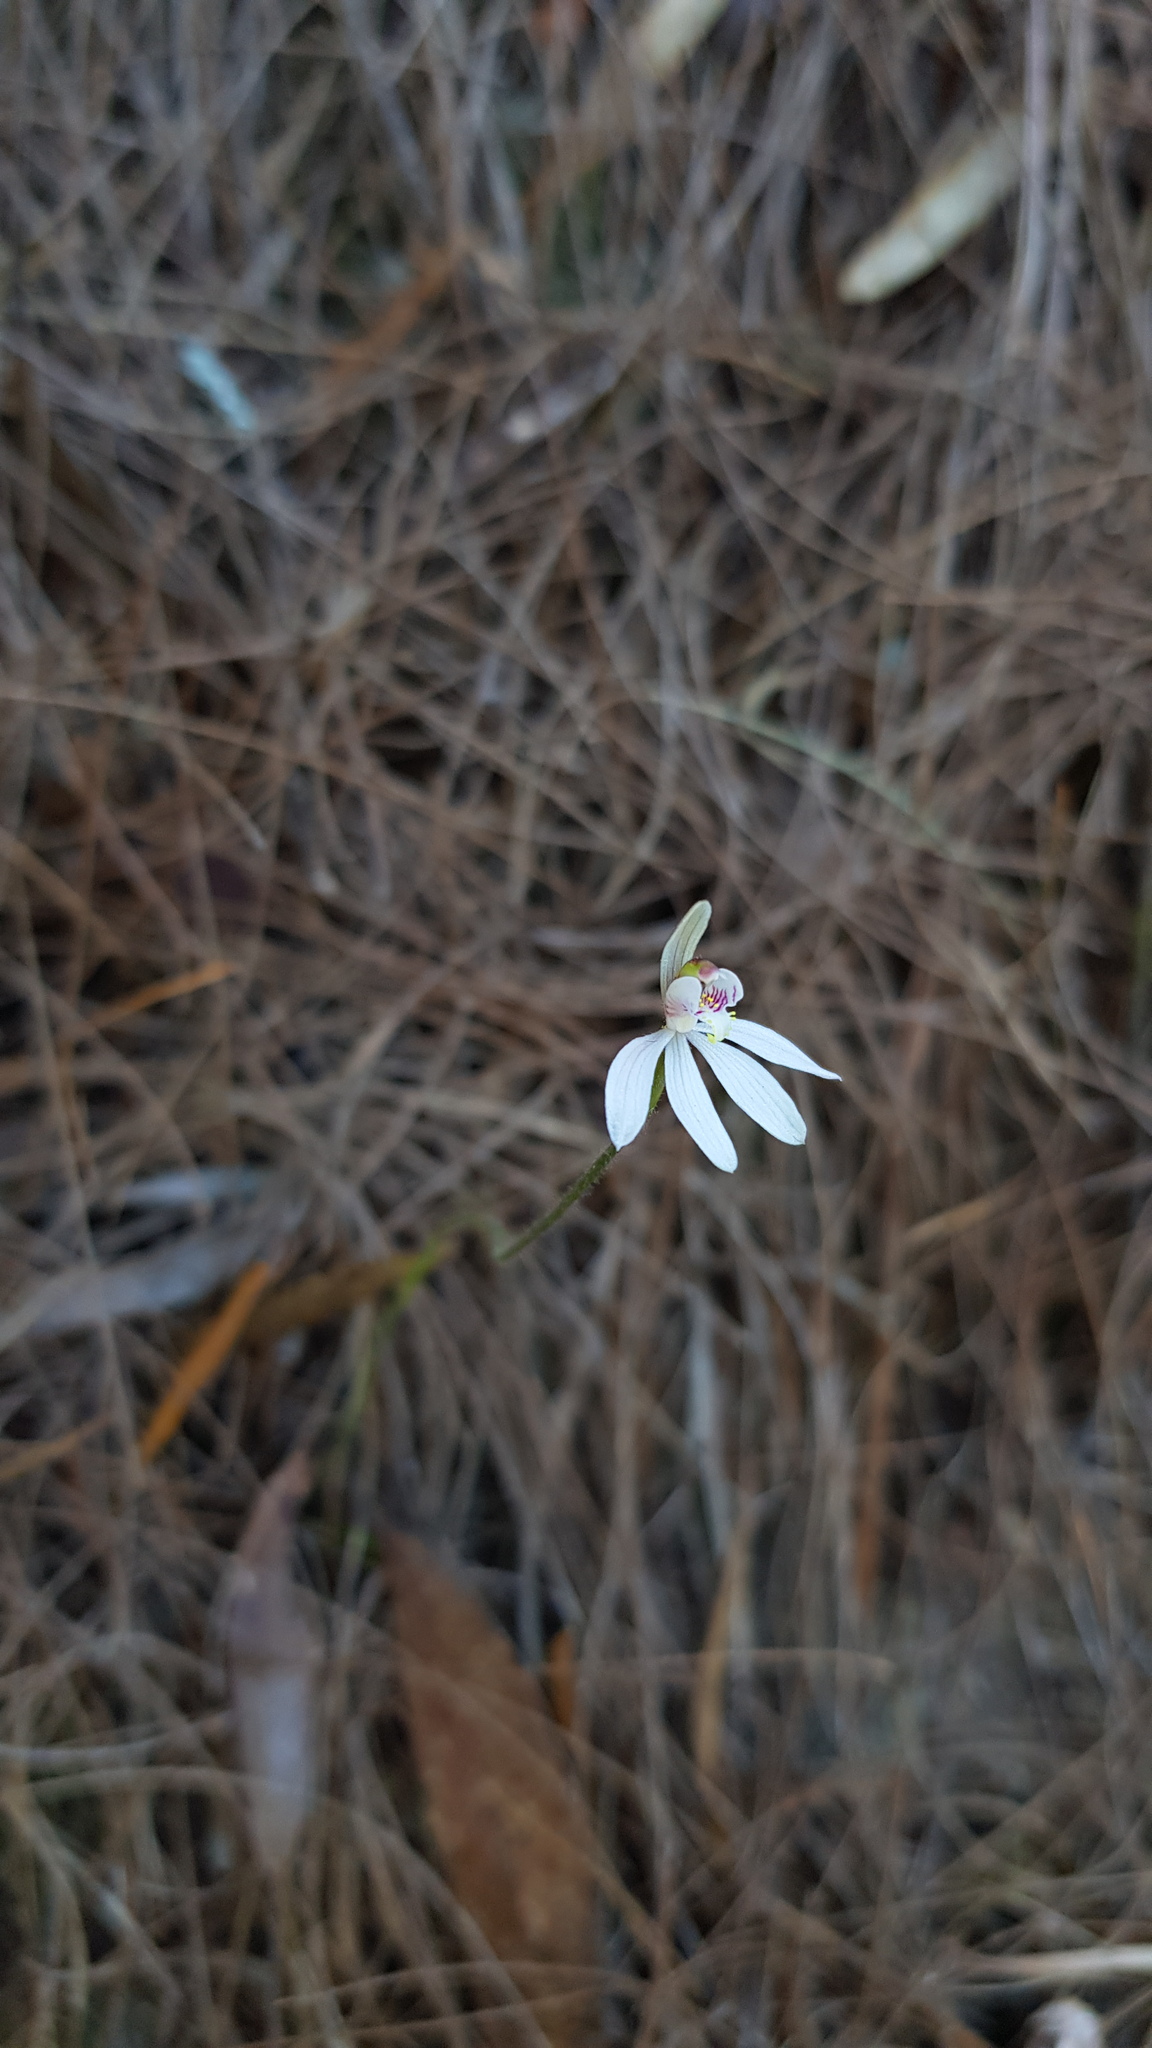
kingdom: Plantae
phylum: Tracheophyta
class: Liliopsida
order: Asparagales
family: Orchidaceae
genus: Caladenia
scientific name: Caladenia carnea
